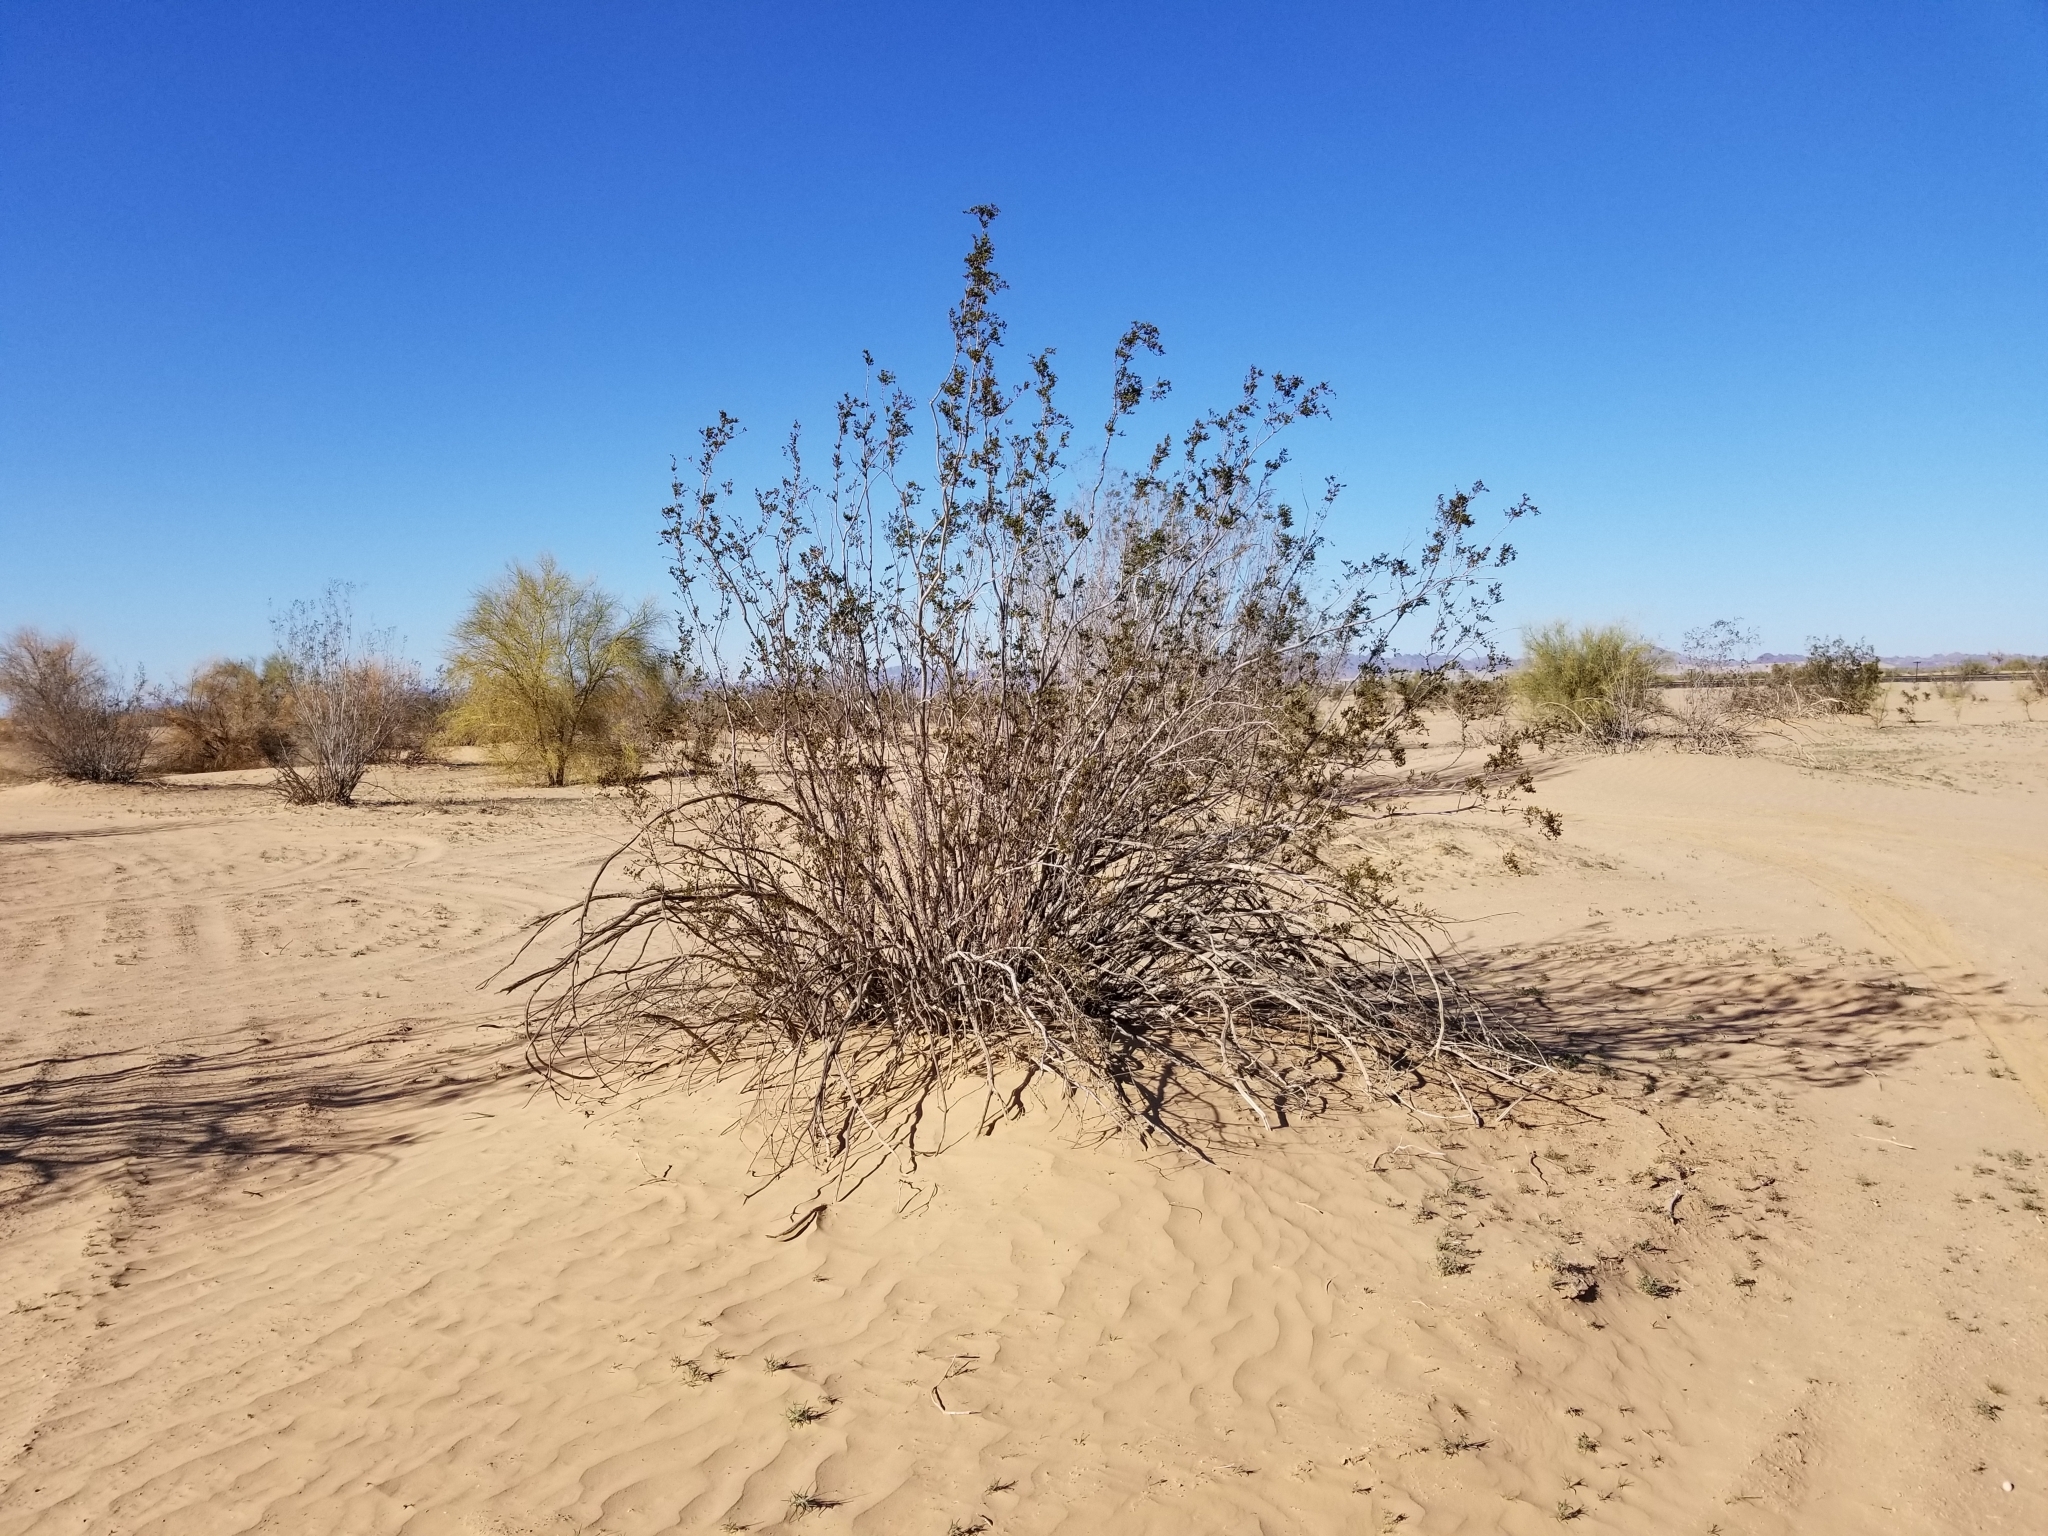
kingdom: Plantae
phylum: Tracheophyta
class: Magnoliopsida
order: Zygophyllales
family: Zygophyllaceae
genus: Larrea
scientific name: Larrea tridentata
